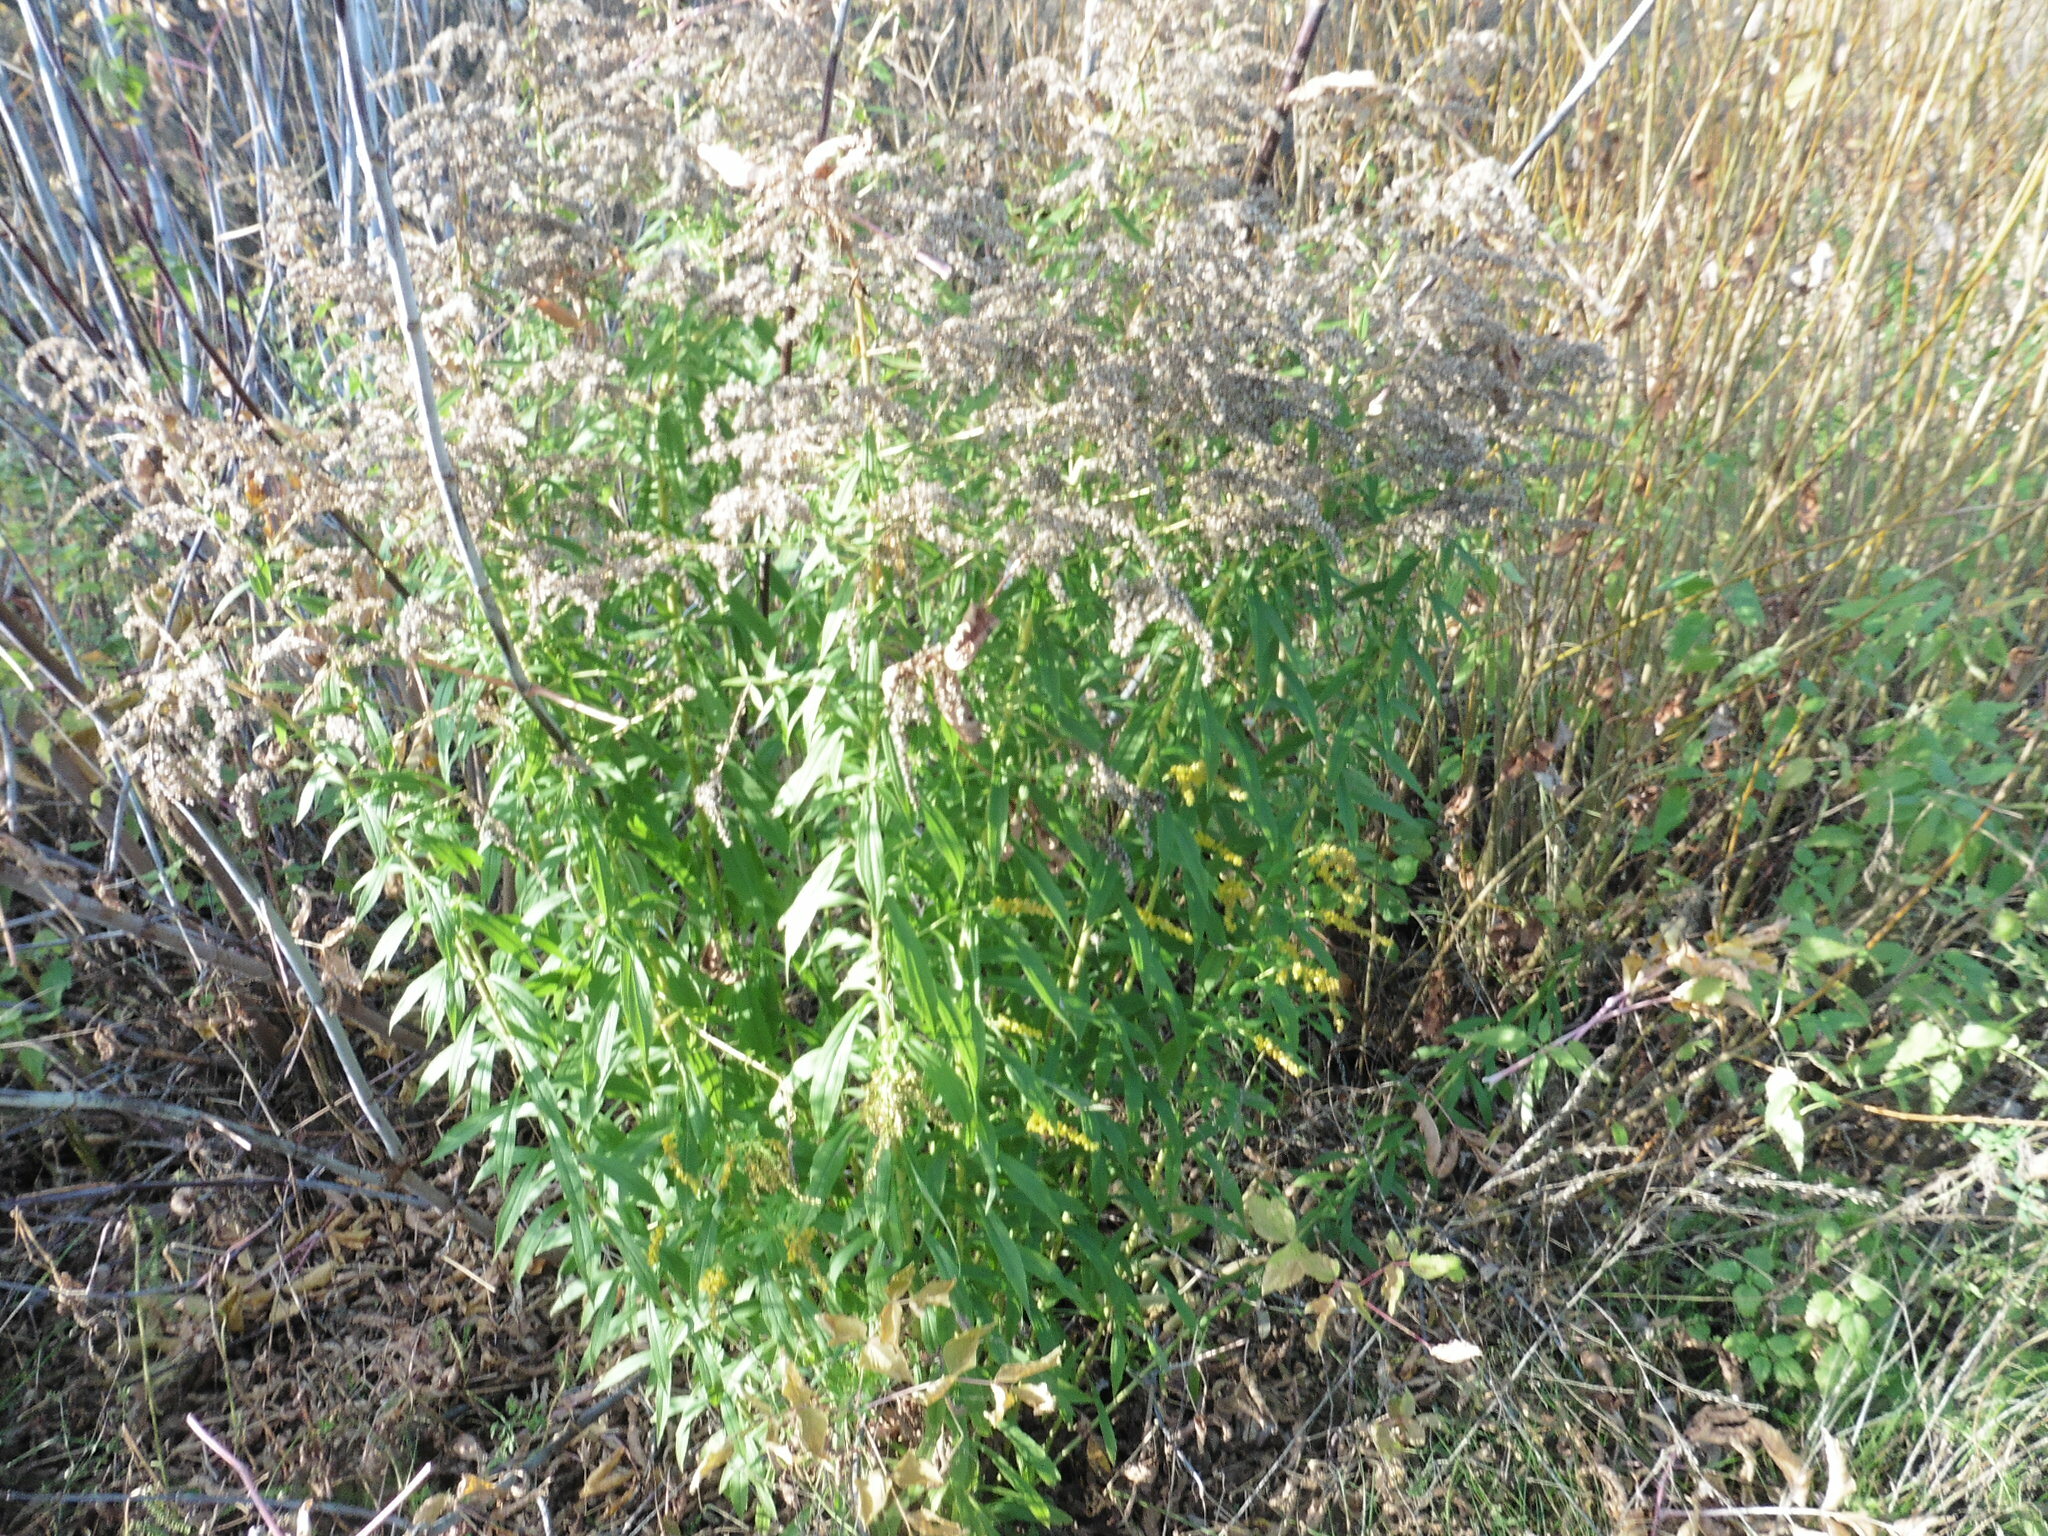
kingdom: Plantae
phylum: Tracheophyta
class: Magnoliopsida
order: Asterales
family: Asteraceae
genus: Solidago
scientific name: Solidago canadensis
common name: Canada goldenrod
